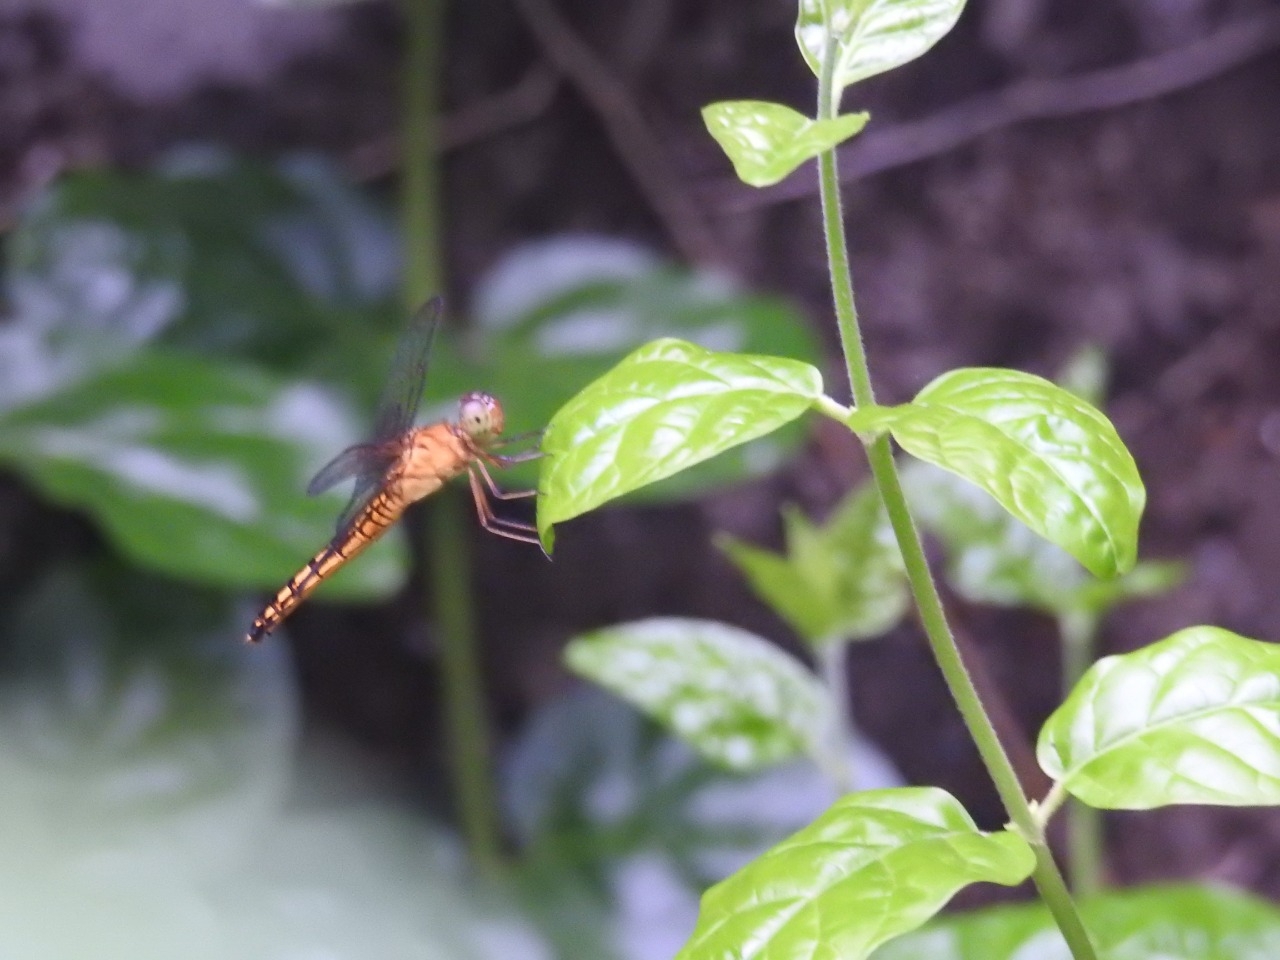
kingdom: Animalia
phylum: Arthropoda
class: Insecta
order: Odonata
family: Libellulidae
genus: Neurothemis
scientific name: Neurothemis ramburii
